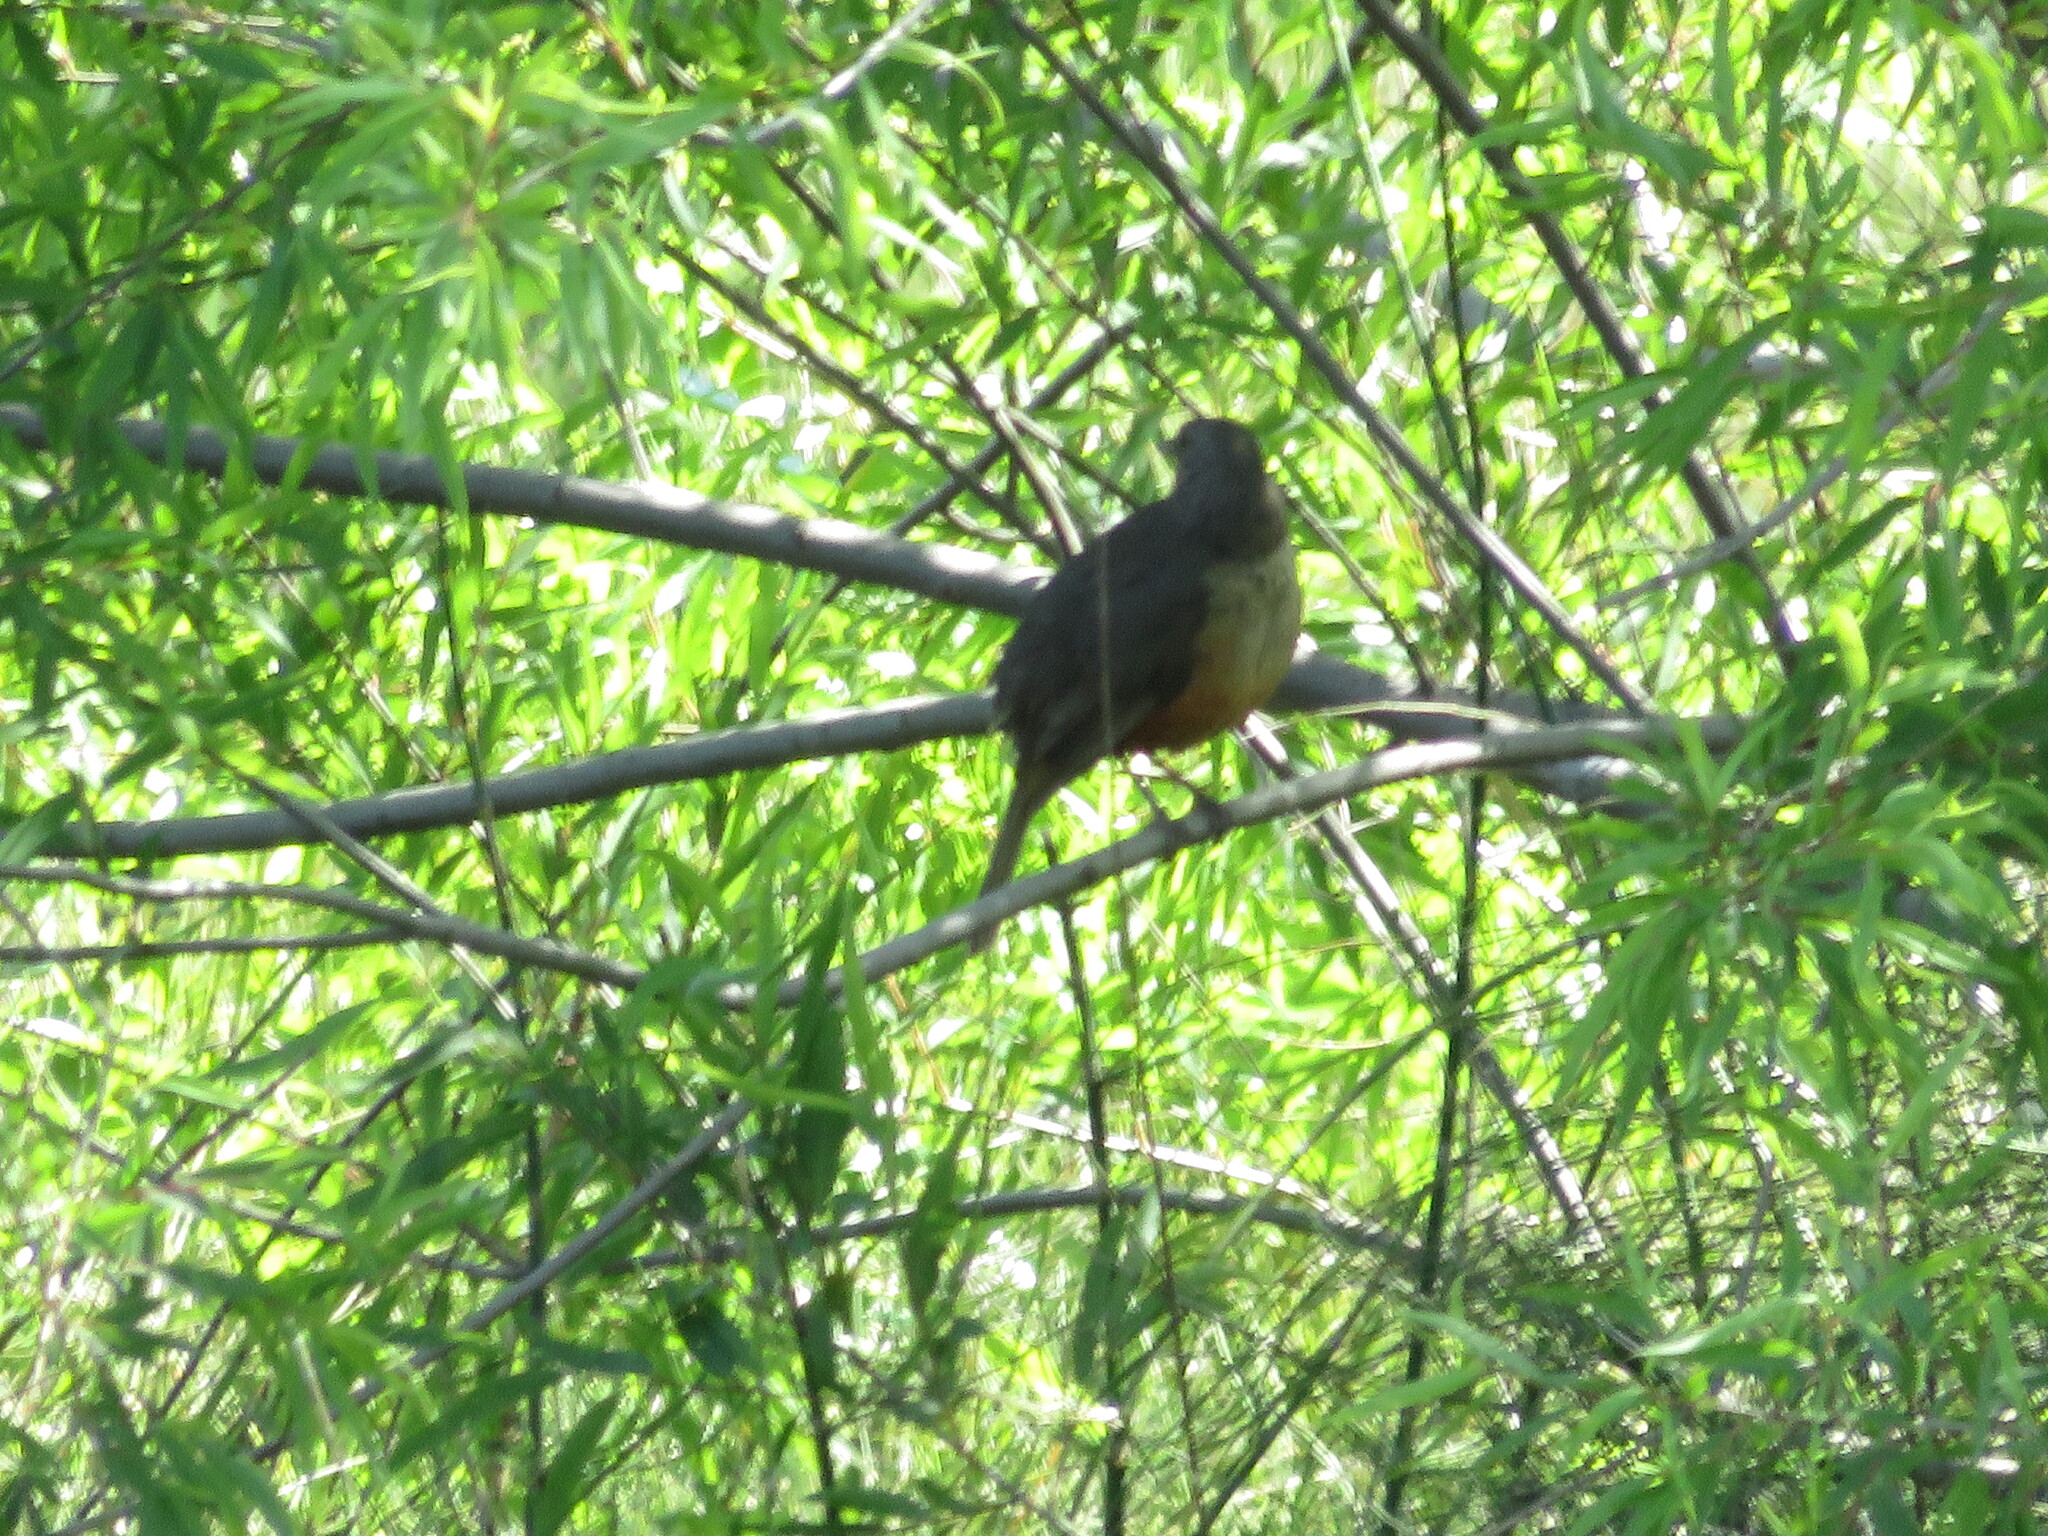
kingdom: Animalia
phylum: Chordata
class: Aves
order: Passeriformes
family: Turdidae
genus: Turdus
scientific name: Turdus rufiventris
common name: Rufous-bellied thrush
